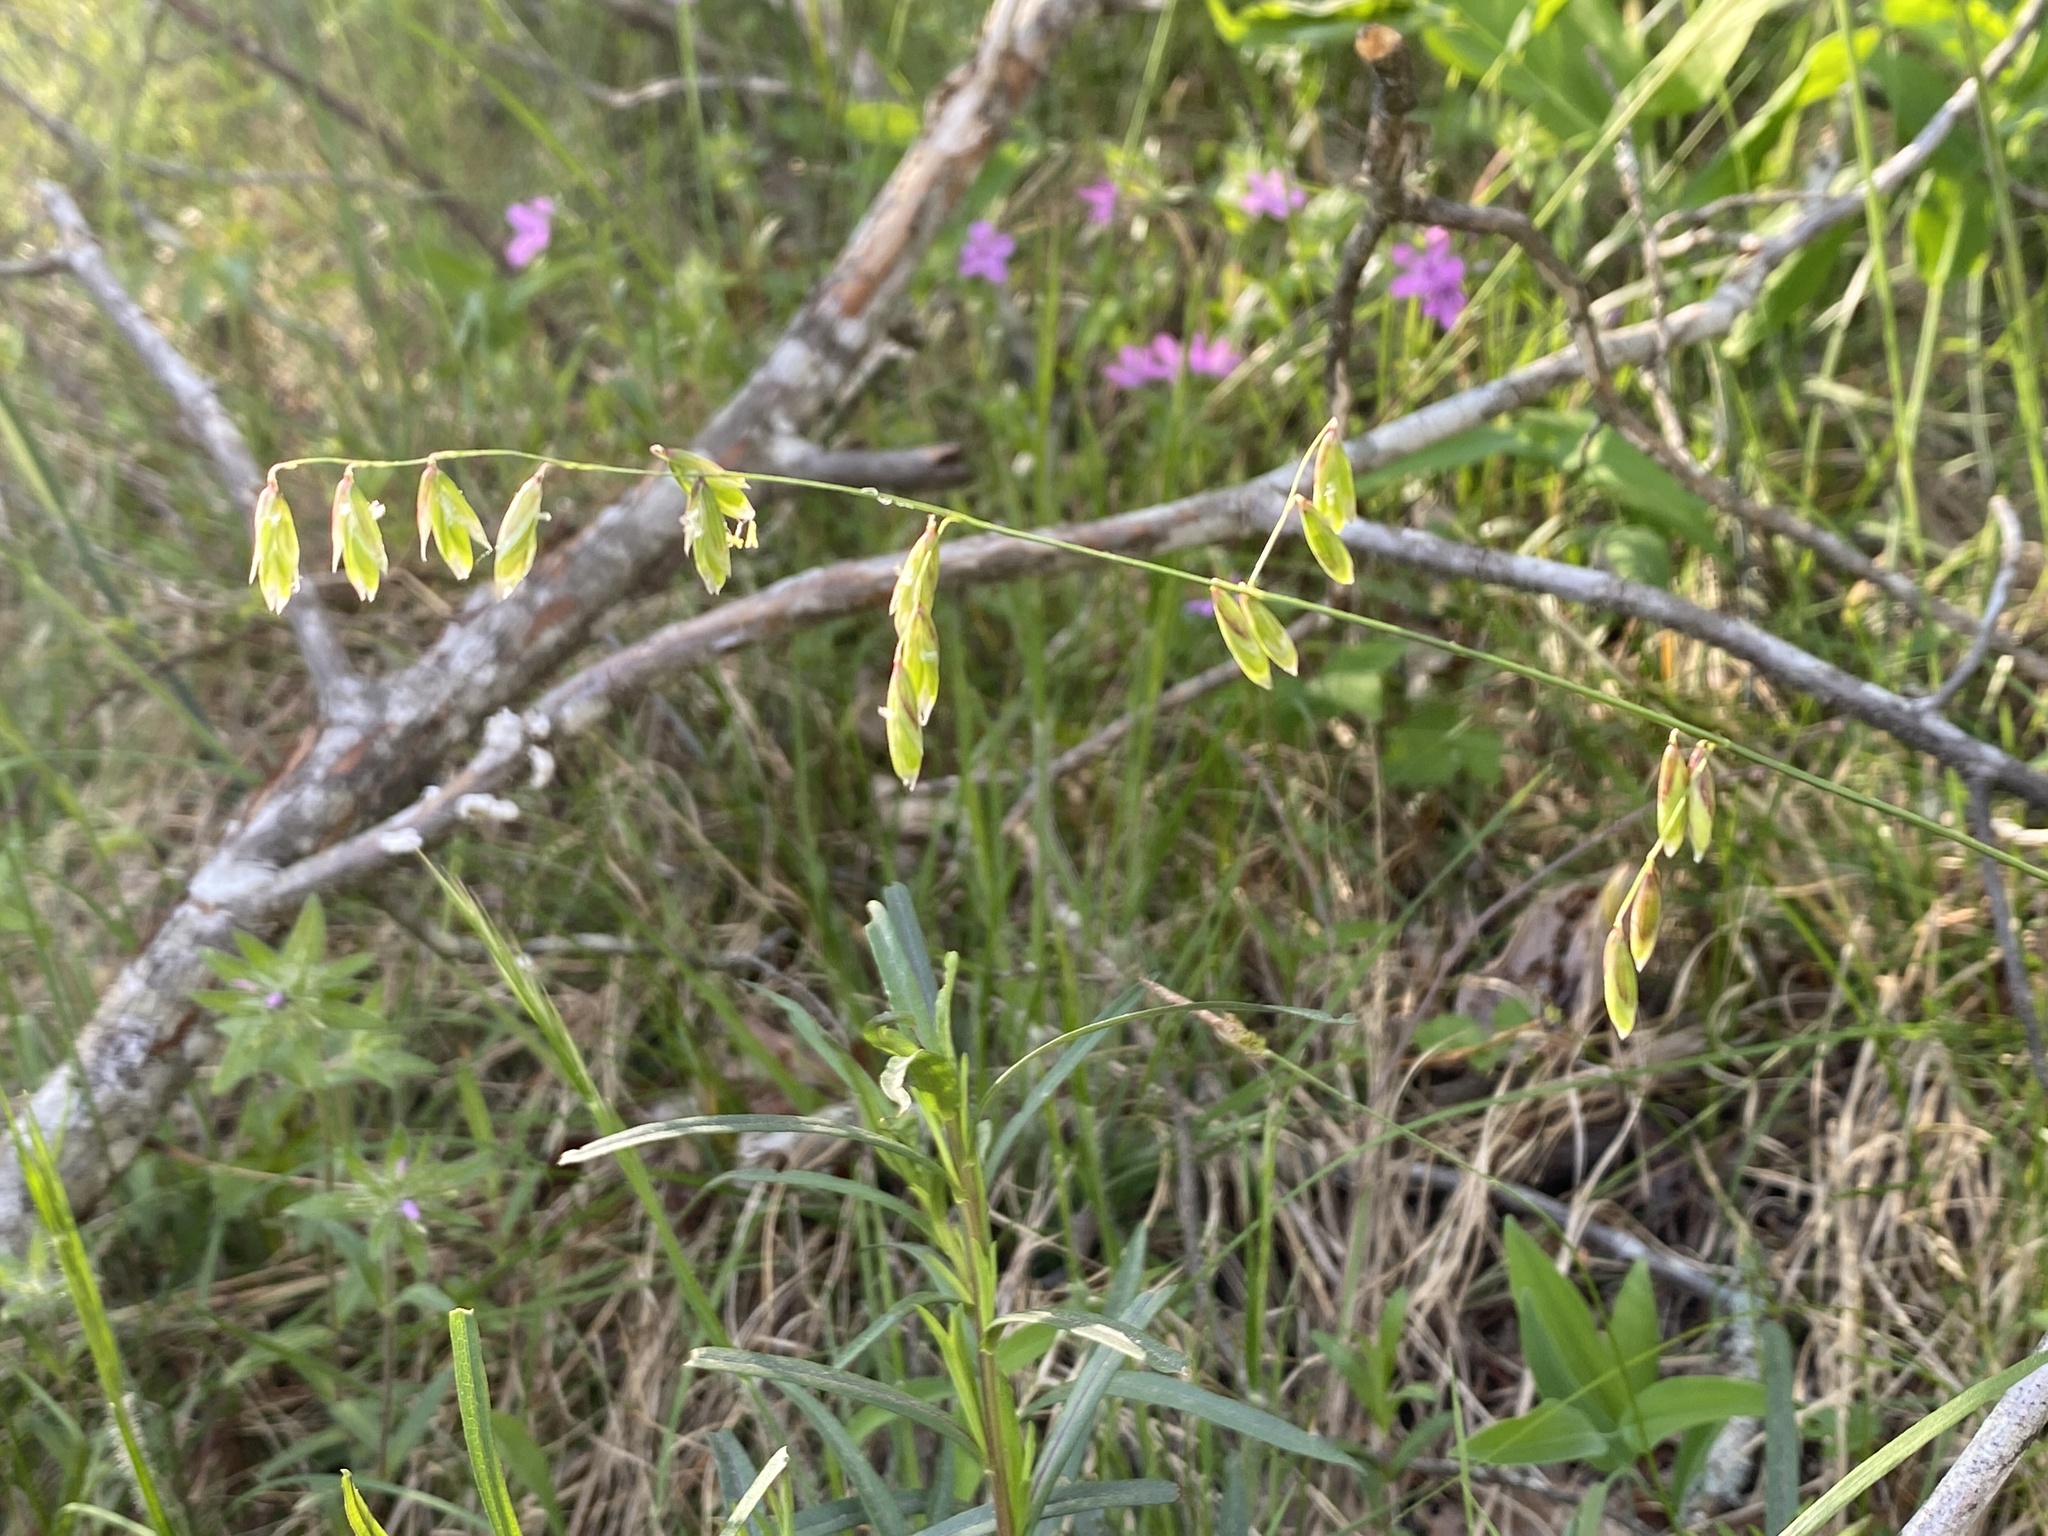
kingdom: Plantae
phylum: Tracheophyta
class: Liliopsida
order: Poales
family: Poaceae
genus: Melica
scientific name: Melica mutica
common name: Two-flower melic
